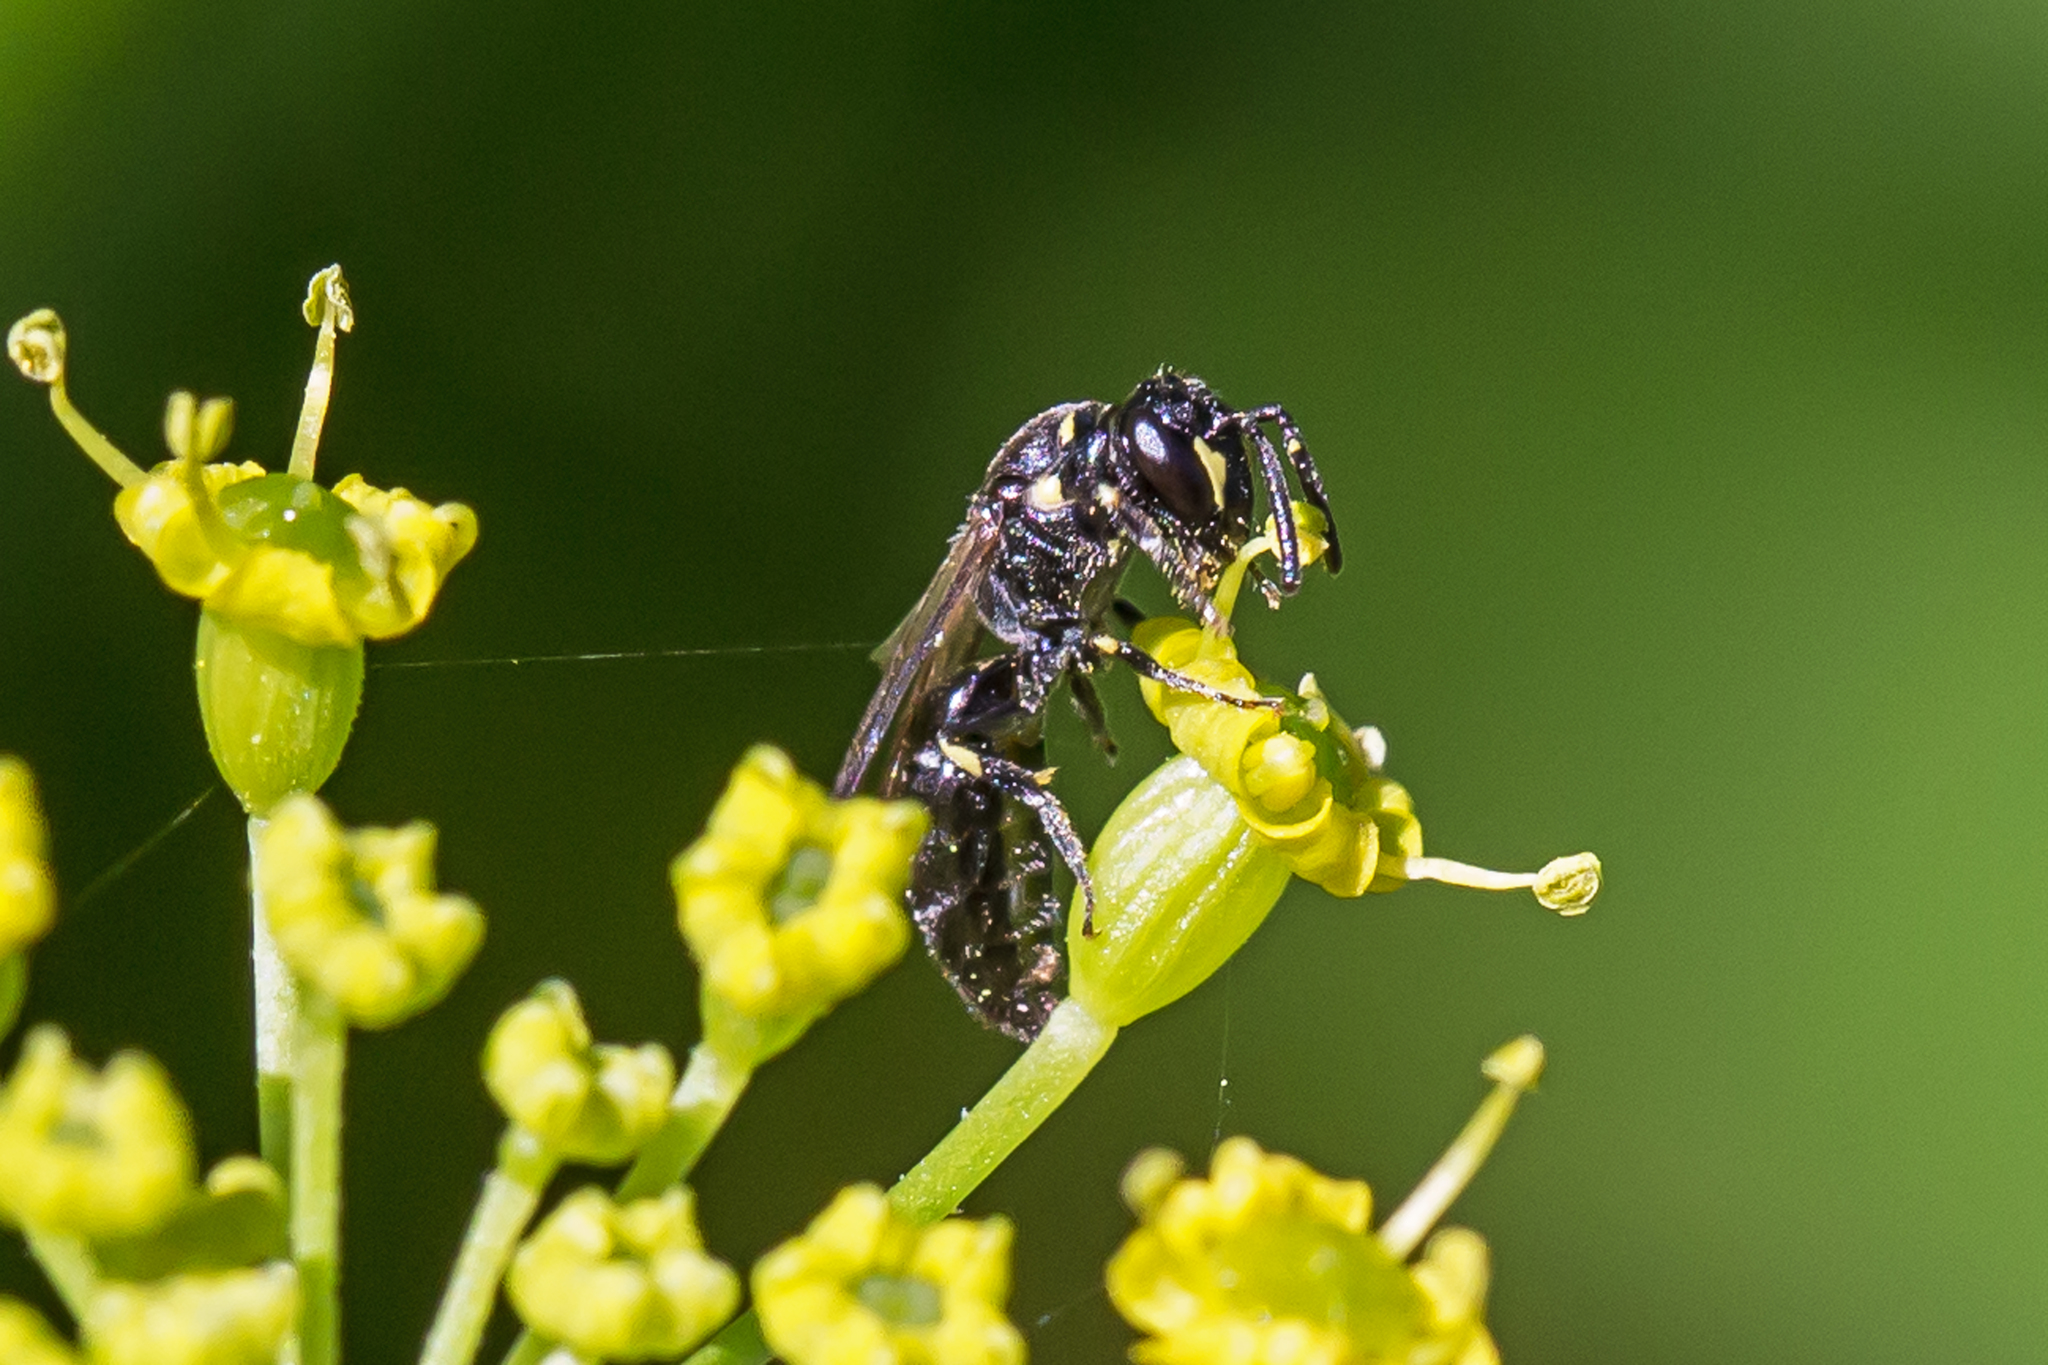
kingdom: Animalia
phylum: Arthropoda
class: Insecta
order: Hymenoptera
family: Colletidae
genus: Hylaeus
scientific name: Hylaeus modestus
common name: Yellow-faced bee
